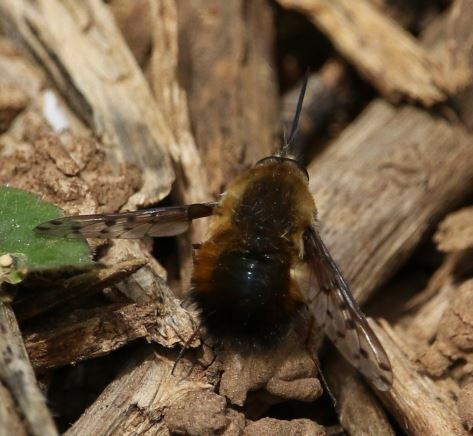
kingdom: Animalia
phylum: Arthropoda
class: Insecta
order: Diptera
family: Bombyliidae
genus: Bombylius
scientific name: Bombylius discolor
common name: Dotted bee-fly
